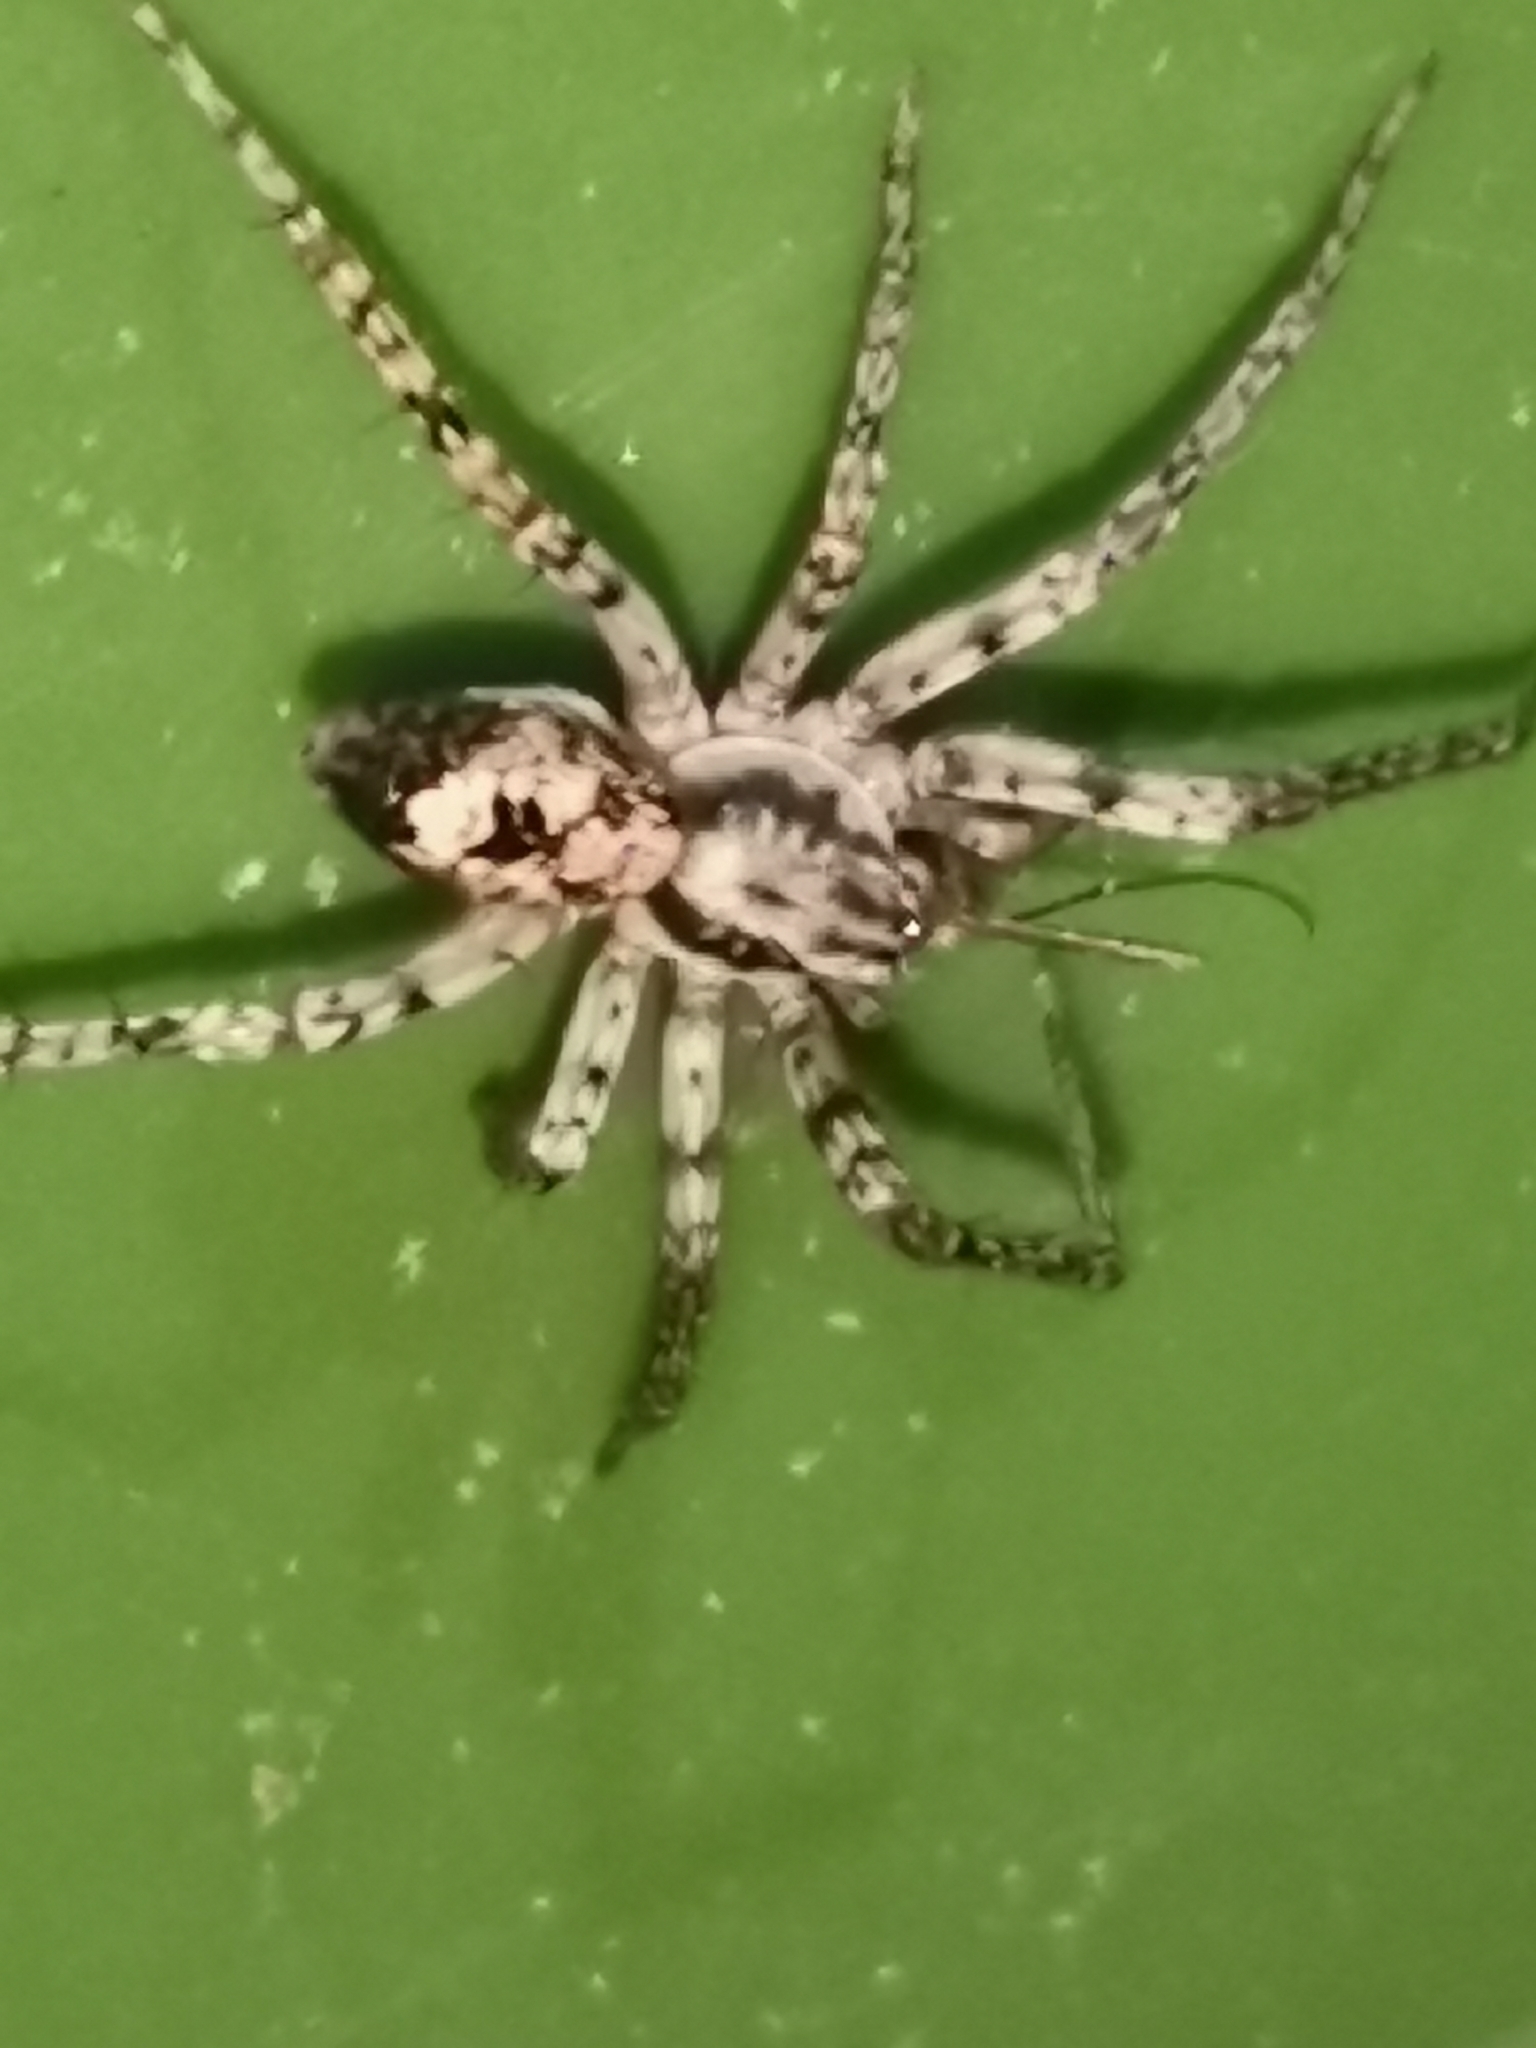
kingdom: Animalia
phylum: Arthropoda
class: Arachnida
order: Araneae
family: Anyphaenidae
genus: Anyphaena
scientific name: Anyphaena accentuata
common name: Buzzing spider
